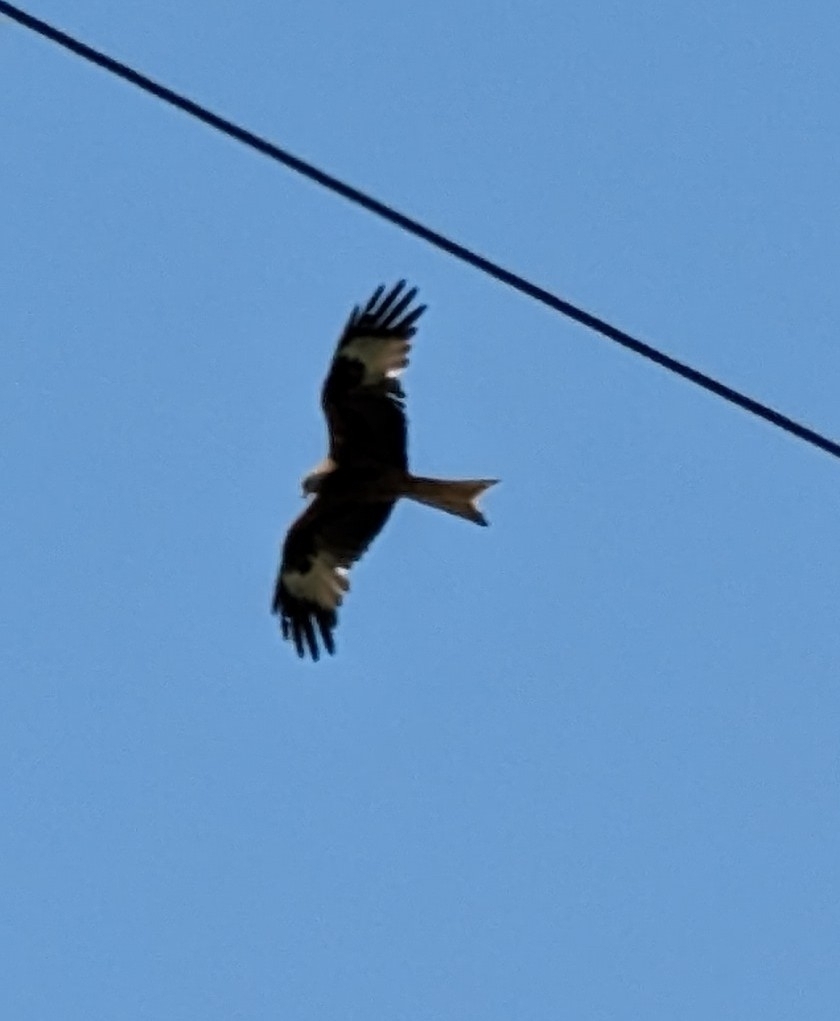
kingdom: Animalia
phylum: Chordata
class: Aves
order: Accipitriformes
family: Accipitridae
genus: Milvus
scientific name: Milvus milvus
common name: Red kite
